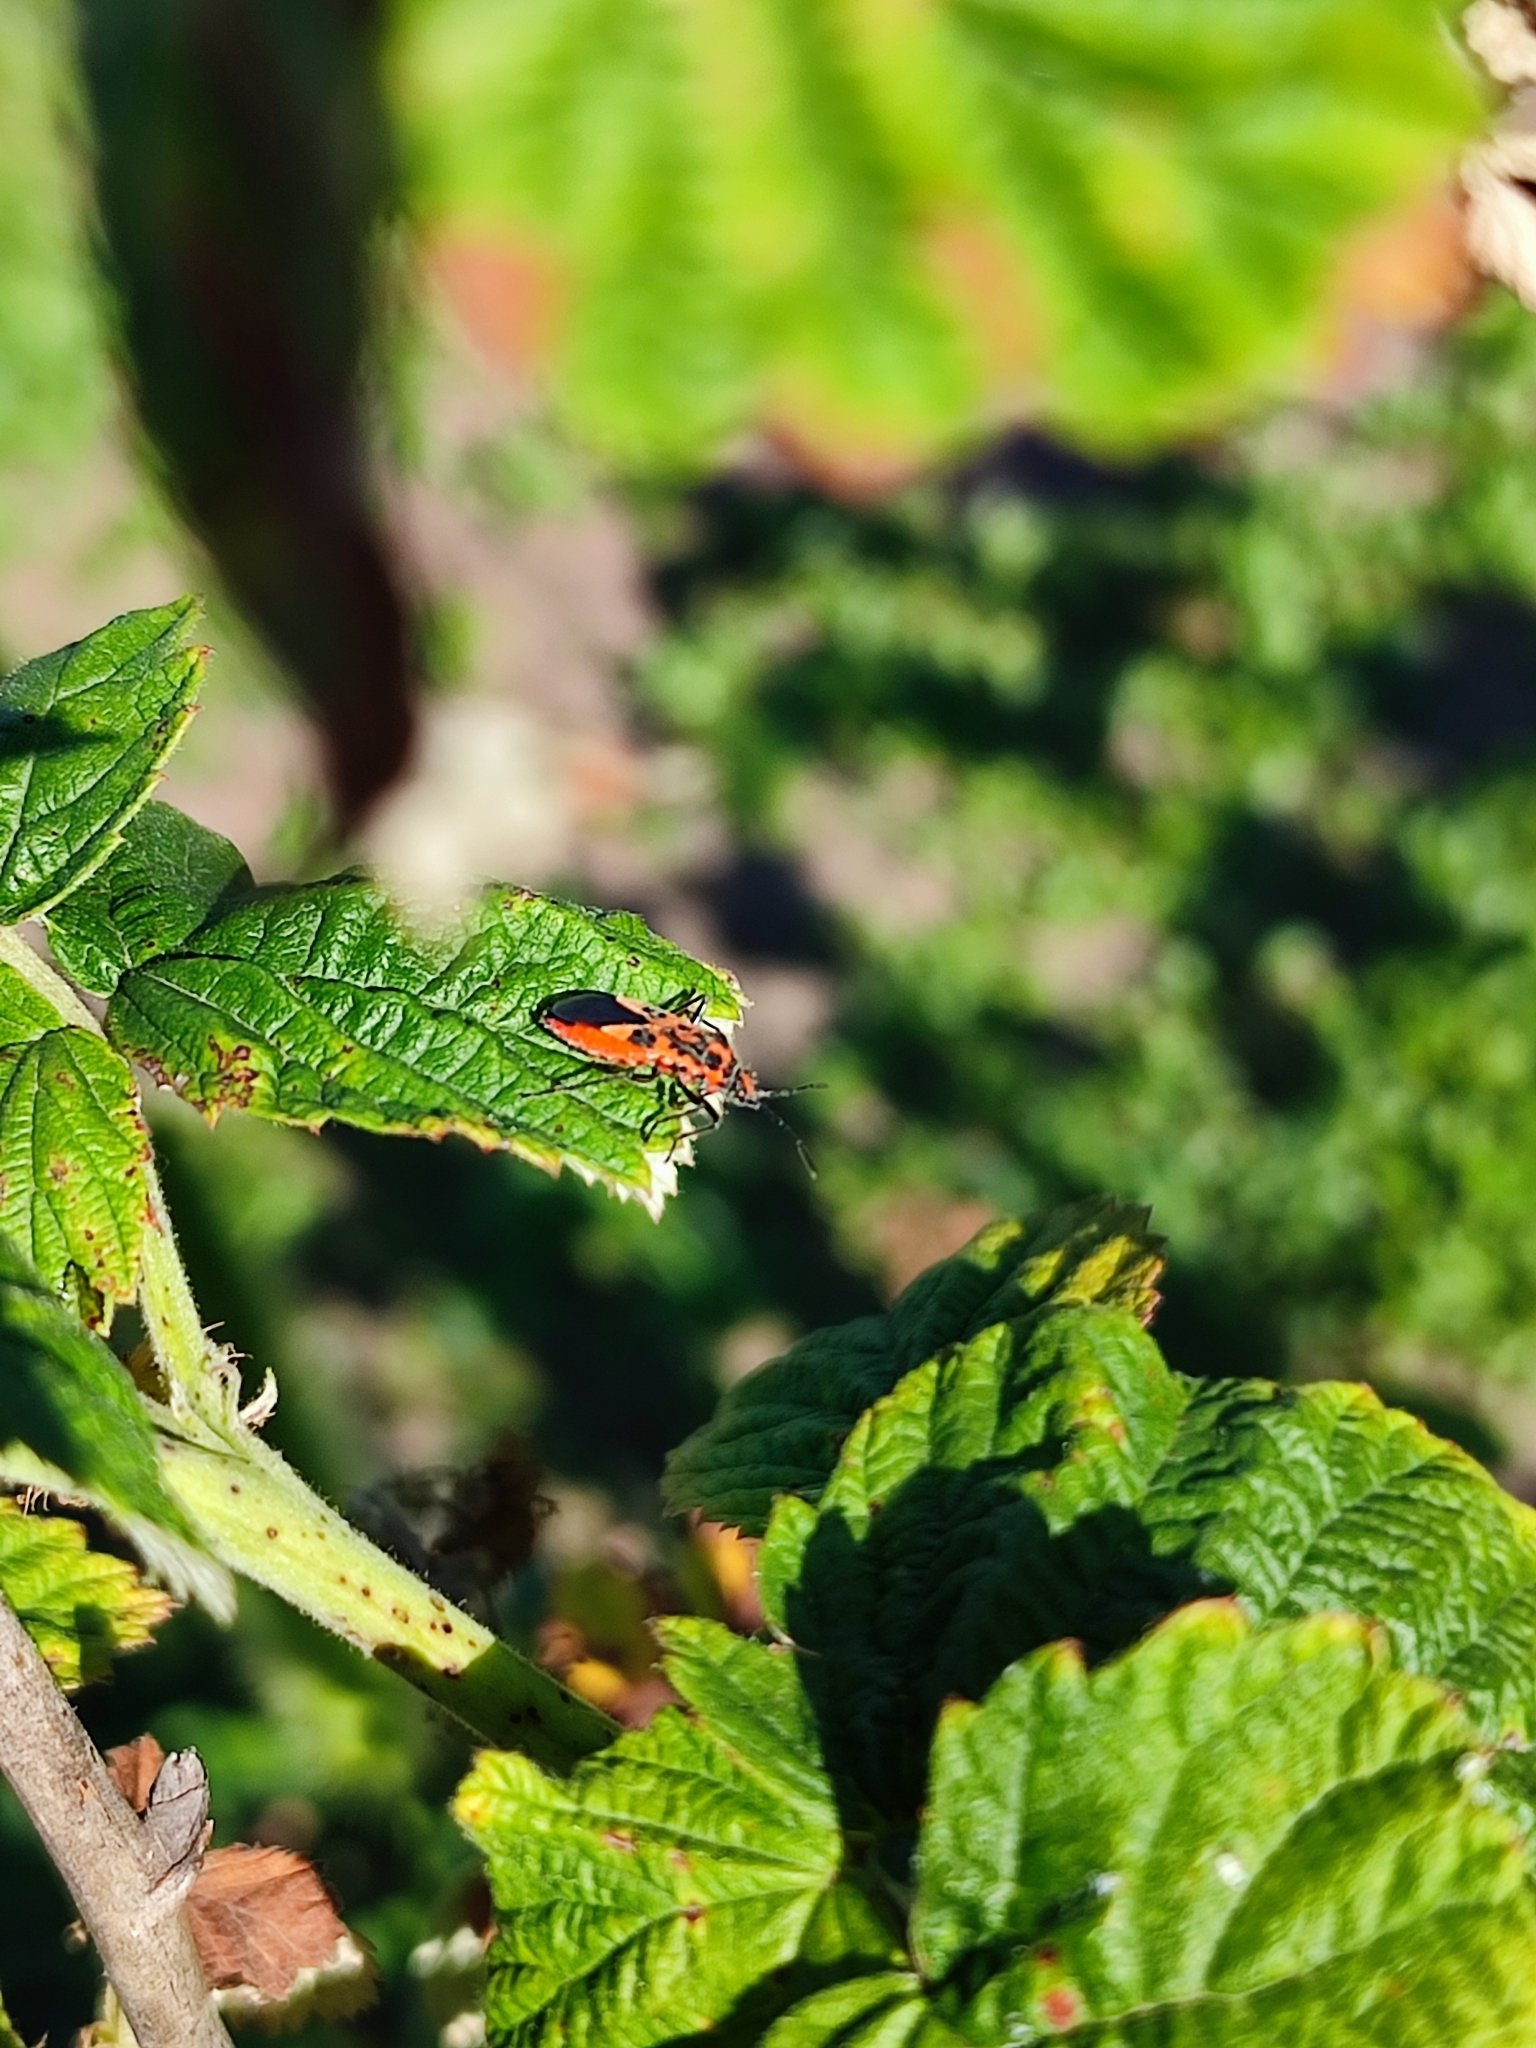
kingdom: Animalia
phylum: Arthropoda
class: Insecta
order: Hemiptera
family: Rhopalidae
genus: Corizus
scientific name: Corizus hyoscyami
